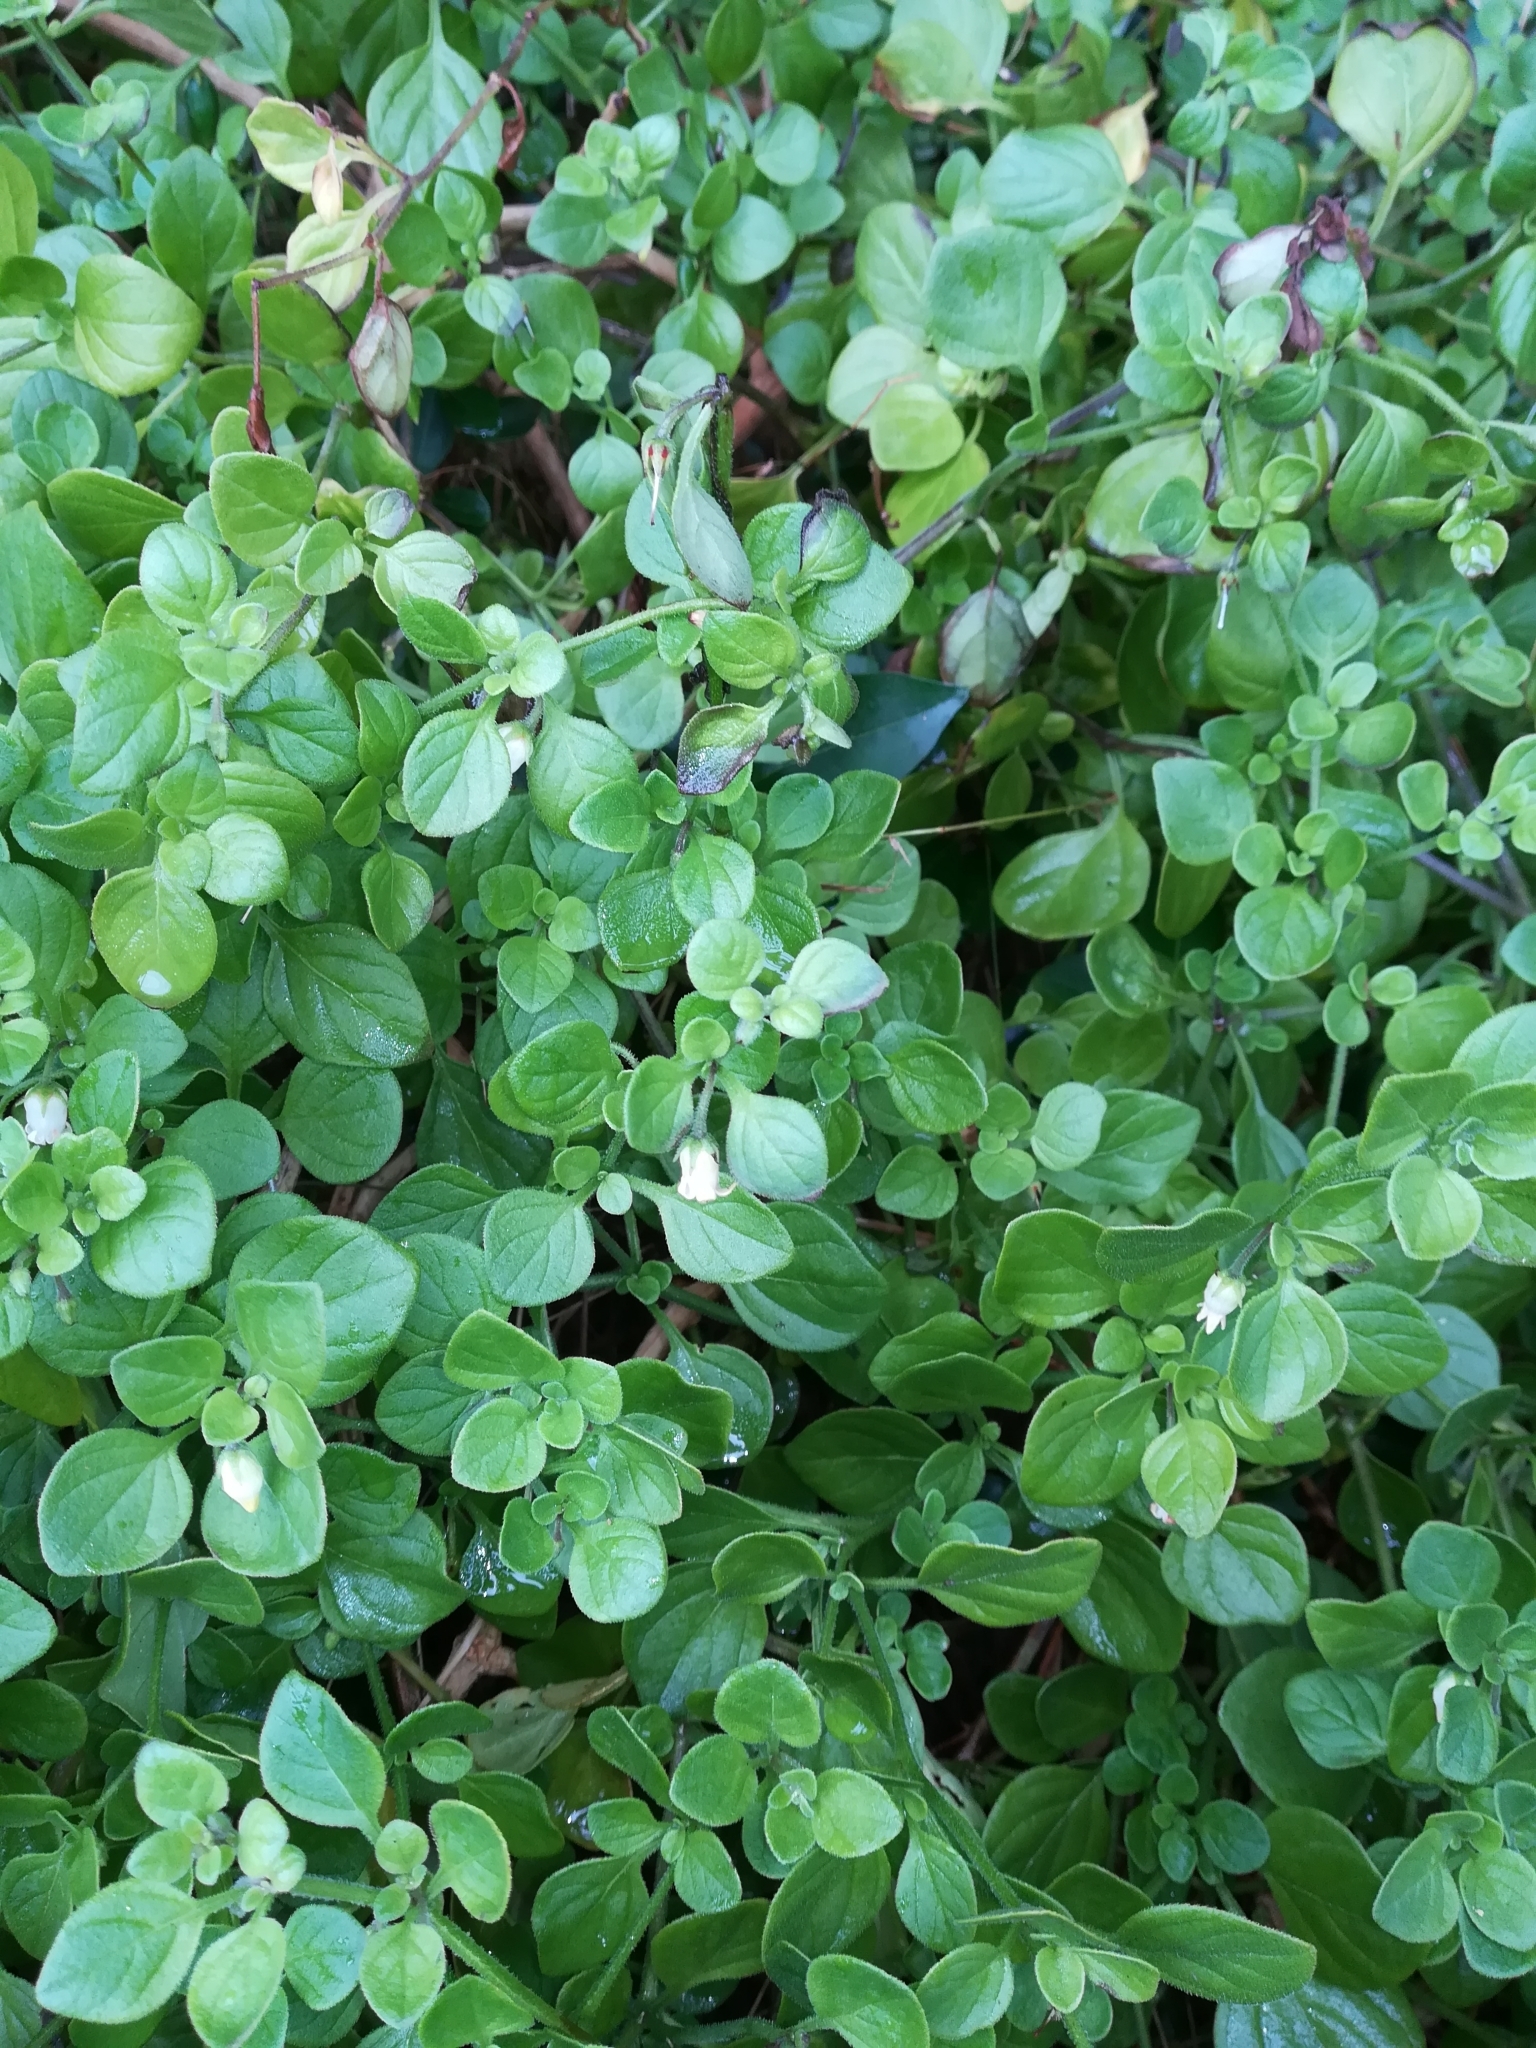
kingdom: Plantae
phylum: Tracheophyta
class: Magnoliopsida
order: Solanales
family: Solanaceae
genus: Salpichroa
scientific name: Salpichroa origanifolia
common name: Lily-of-the-valley-vine
